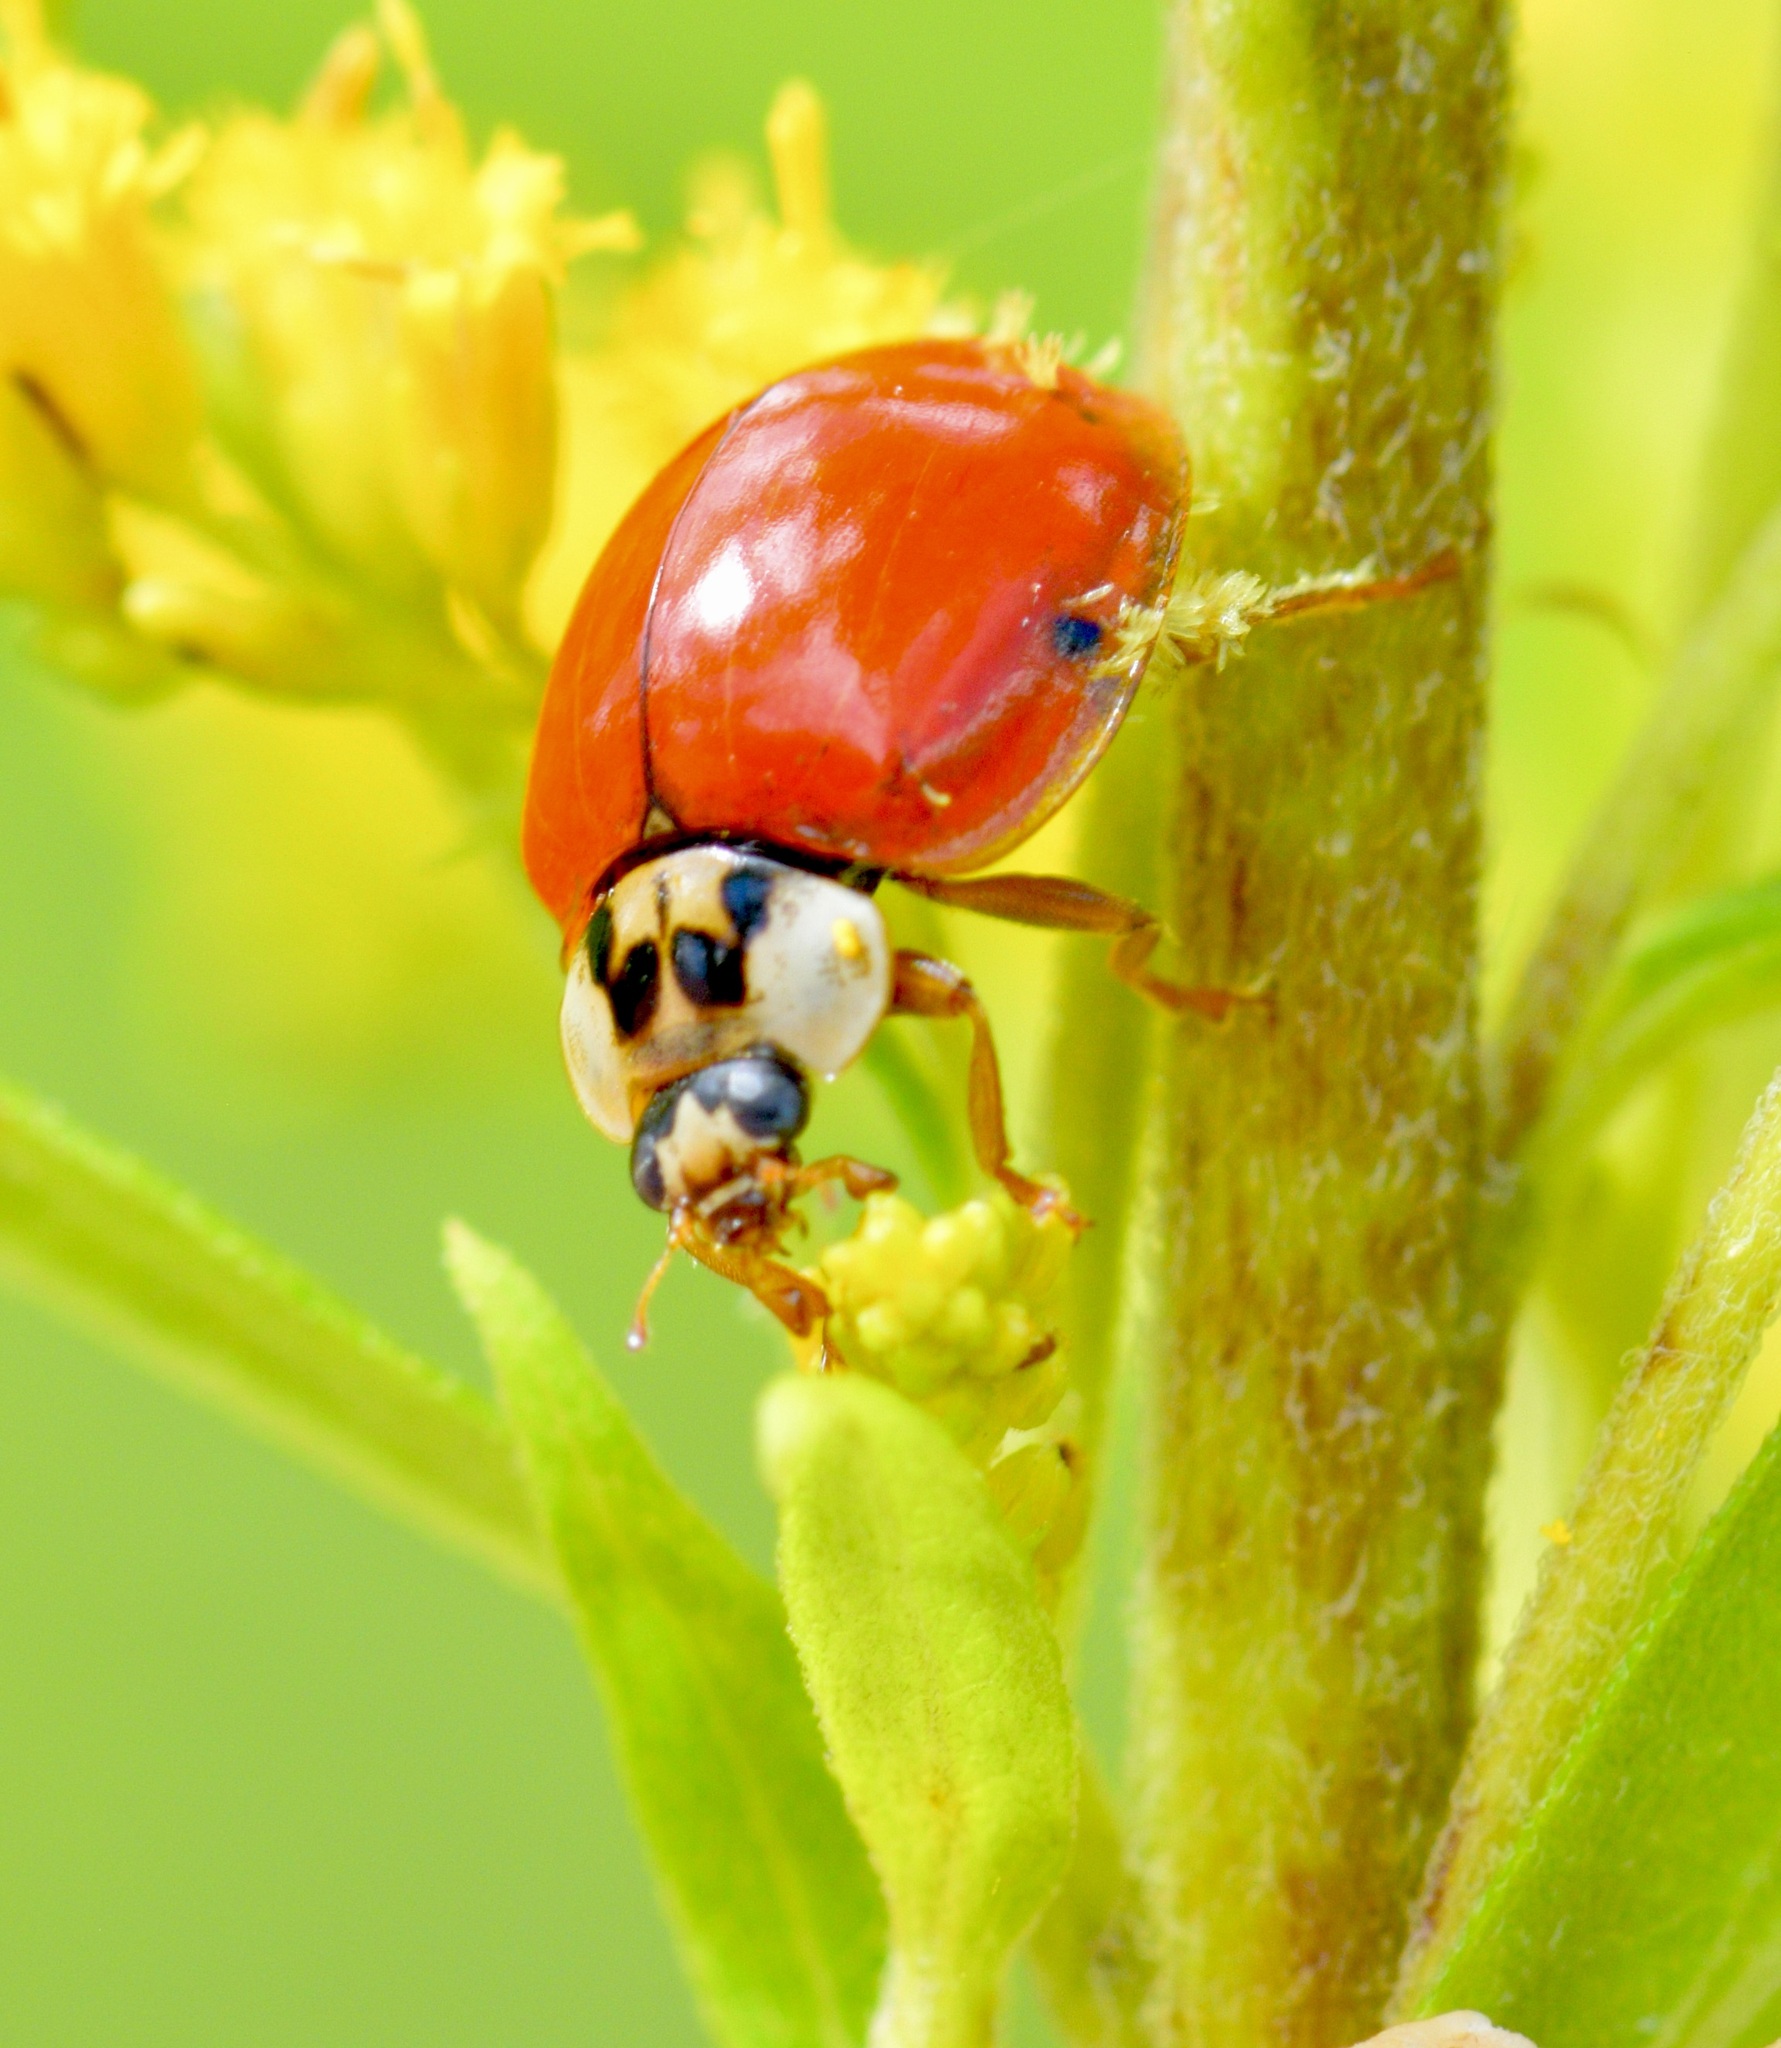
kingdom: Animalia
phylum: Arthropoda
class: Insecta
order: Coleoptera
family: Coccinellidae
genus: Harmonia
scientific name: Harmonia axyridis
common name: Harlequin ladybird
